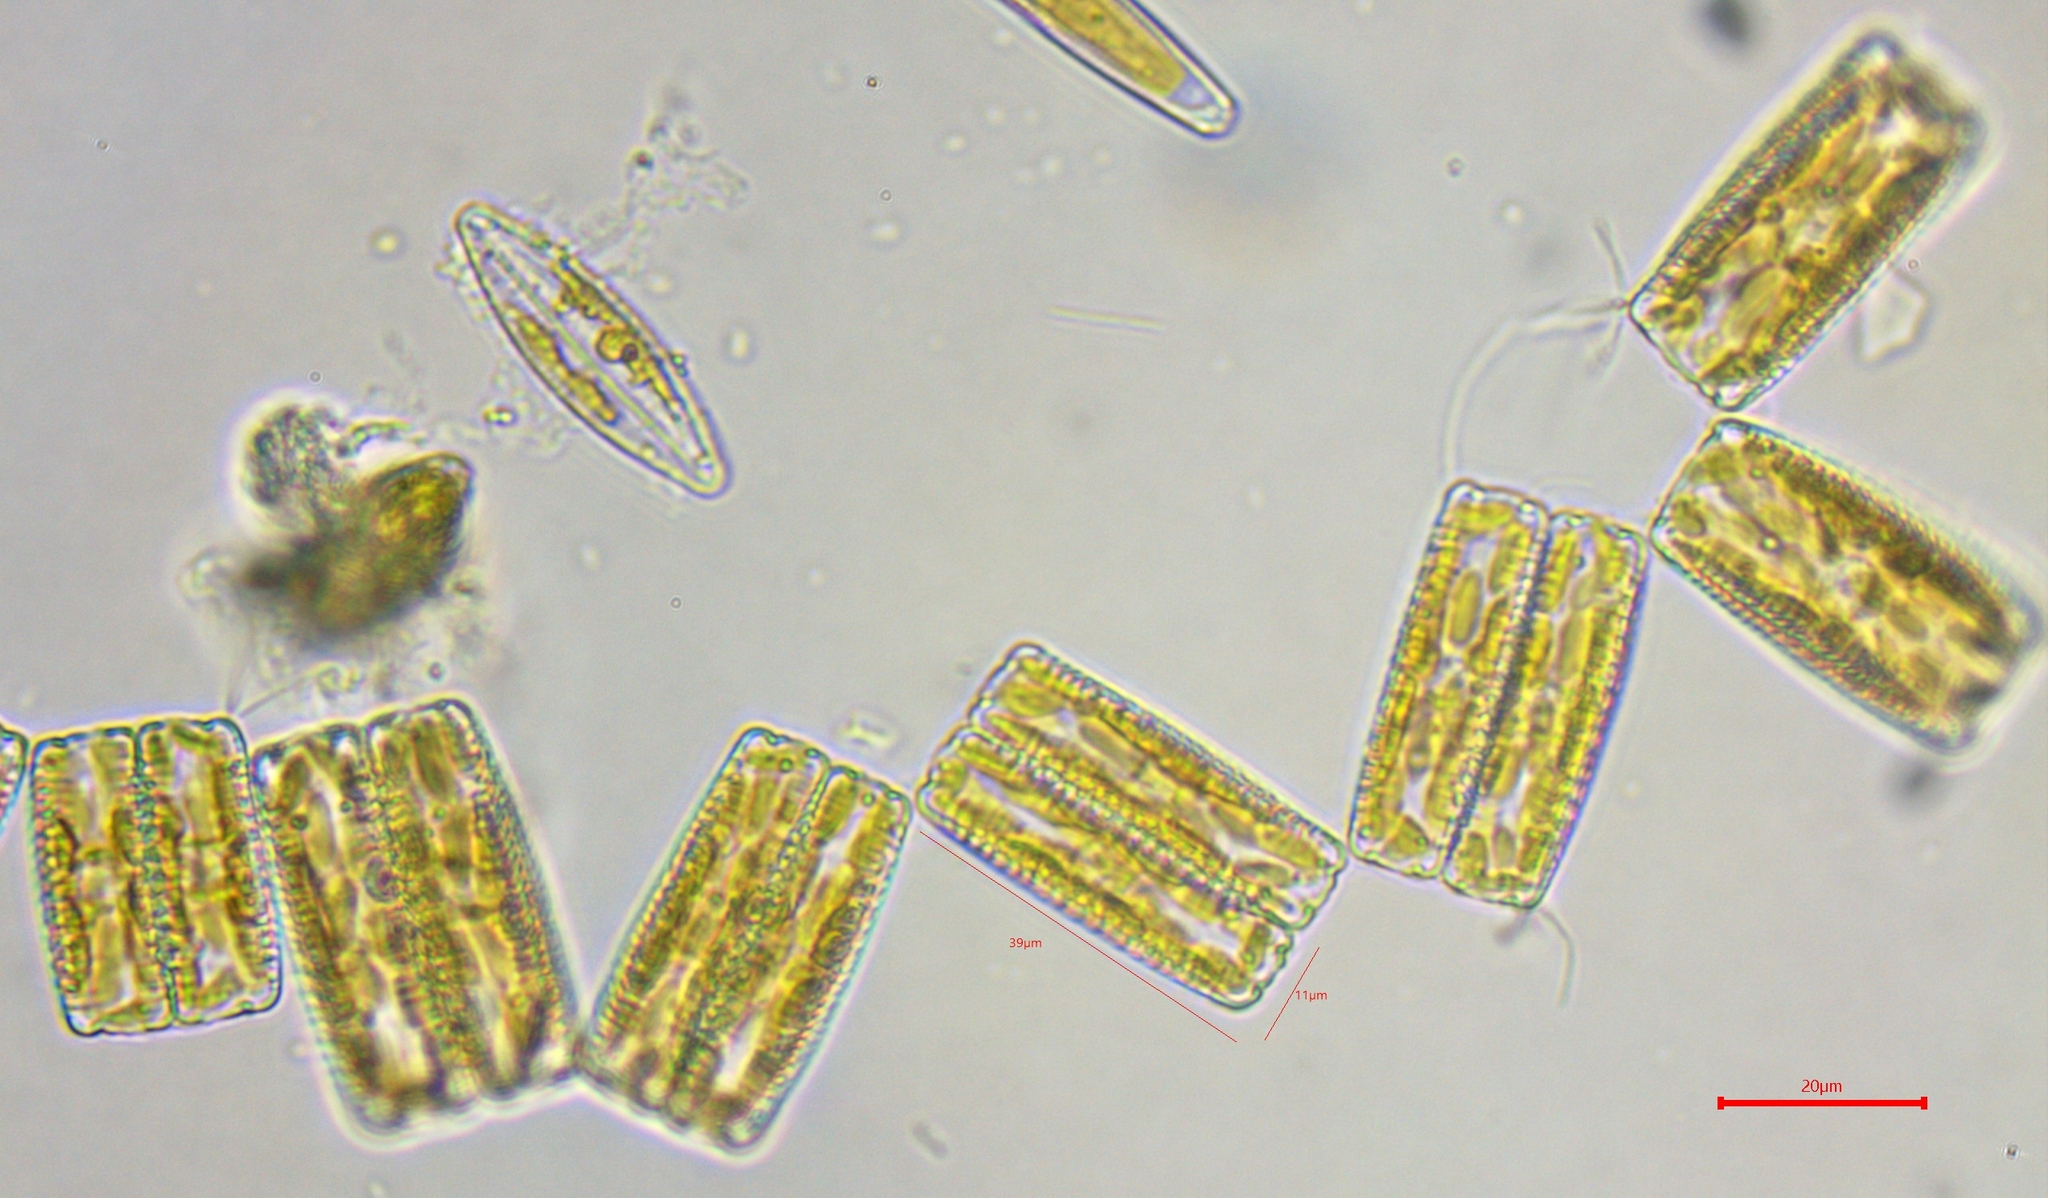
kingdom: Chromista
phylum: Ochrophyta
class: Bacillariophyceae
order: Fragilariales
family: Fragilariaceae
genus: Diatoma
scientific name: Diatoma vulgaris
